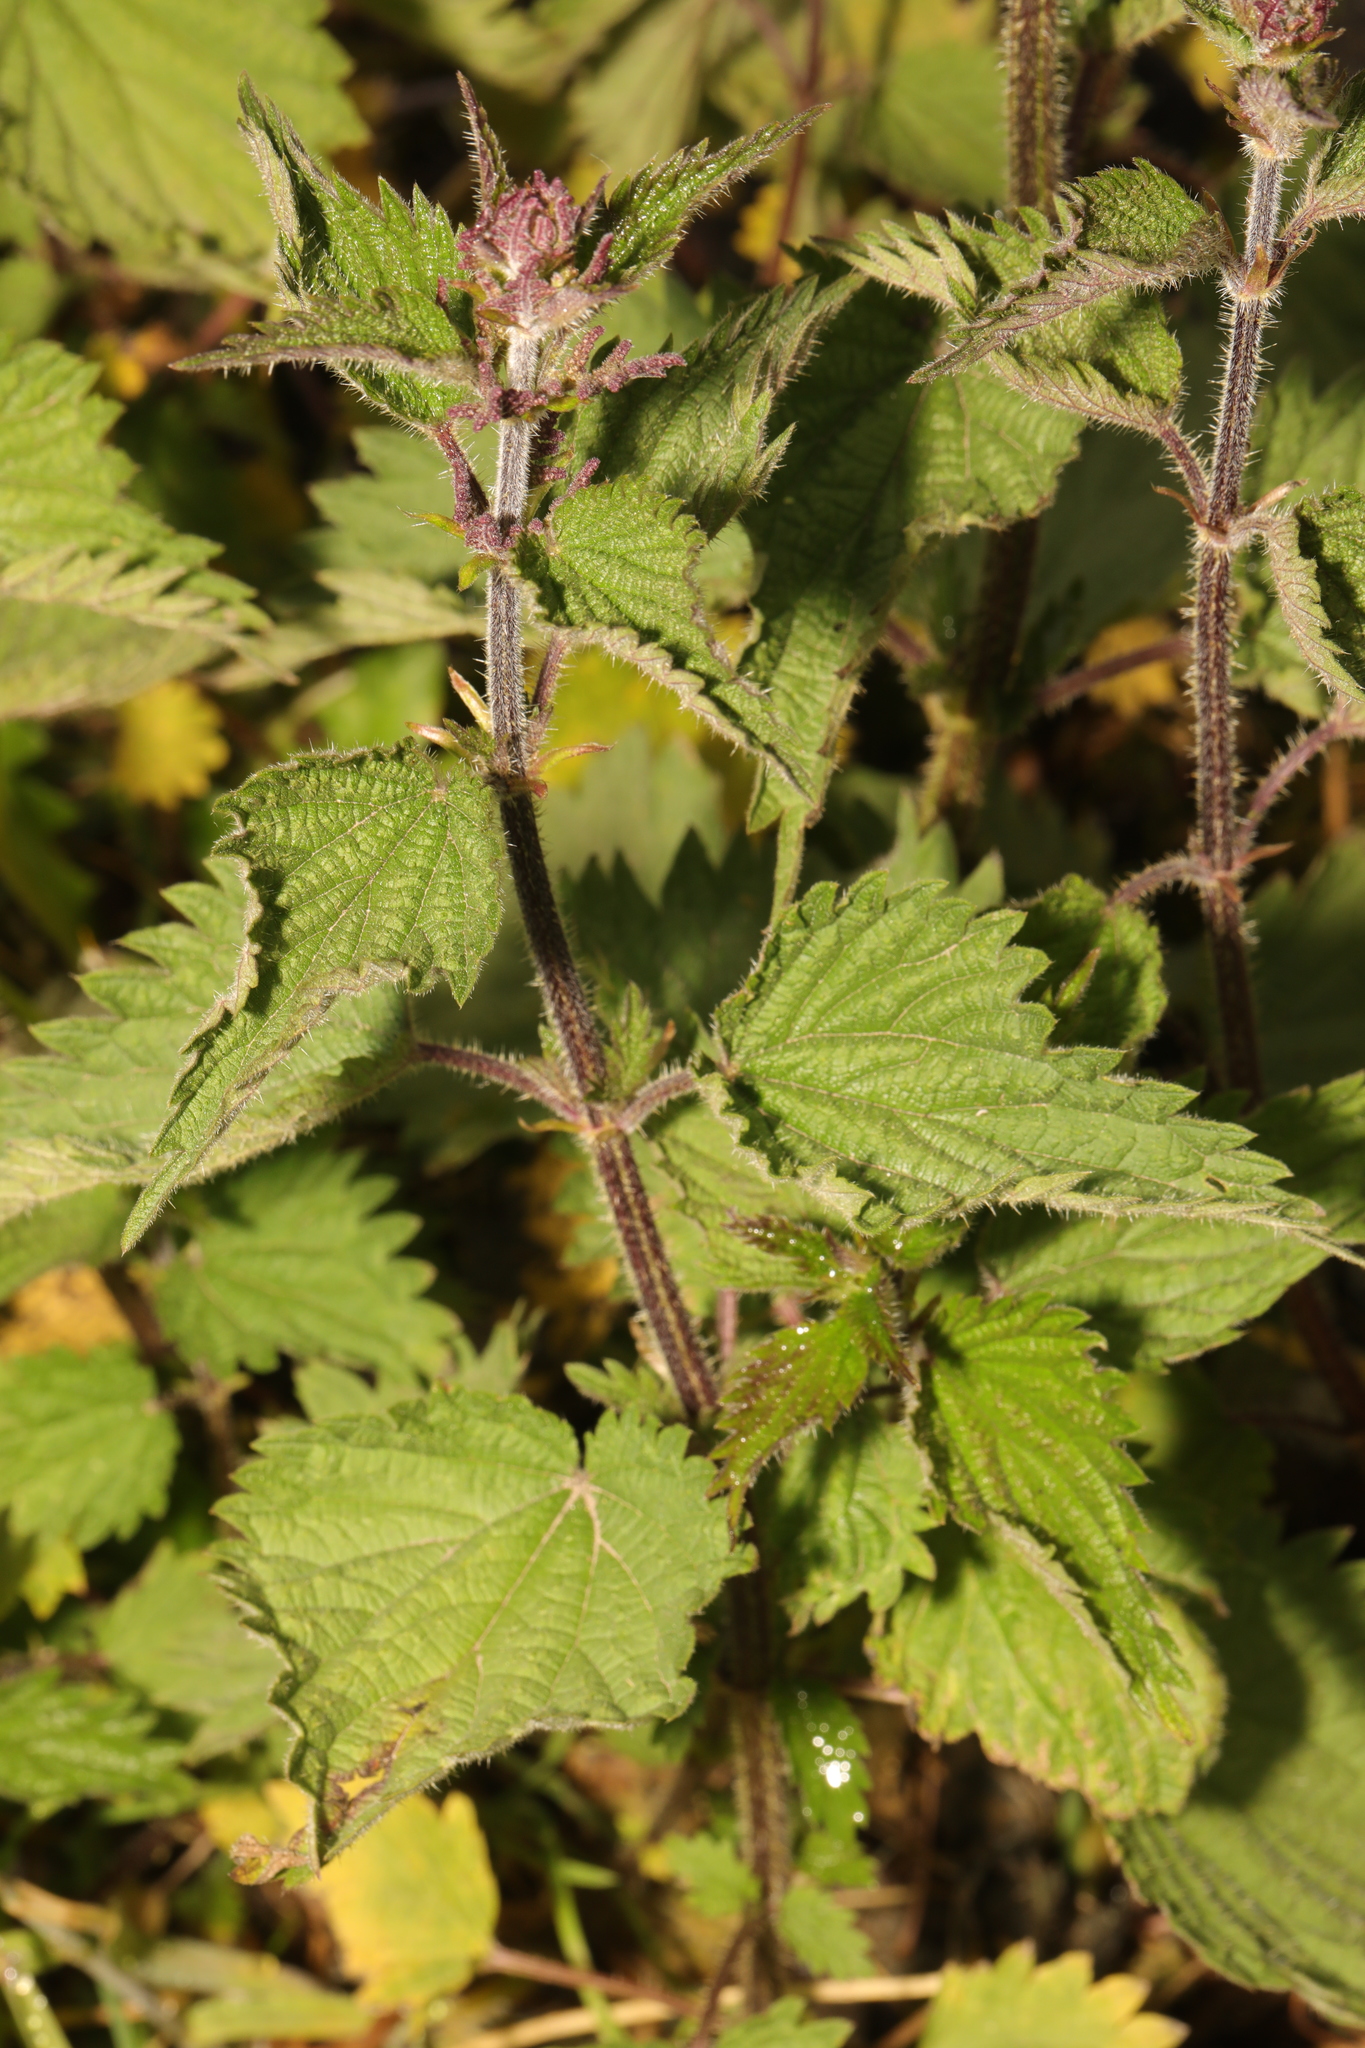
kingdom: Plantae
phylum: Tracheophyta
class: Magnoliopsida
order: Rosales
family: Urticaceae
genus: Urtica
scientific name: Urtica dioica
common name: Common nettle
